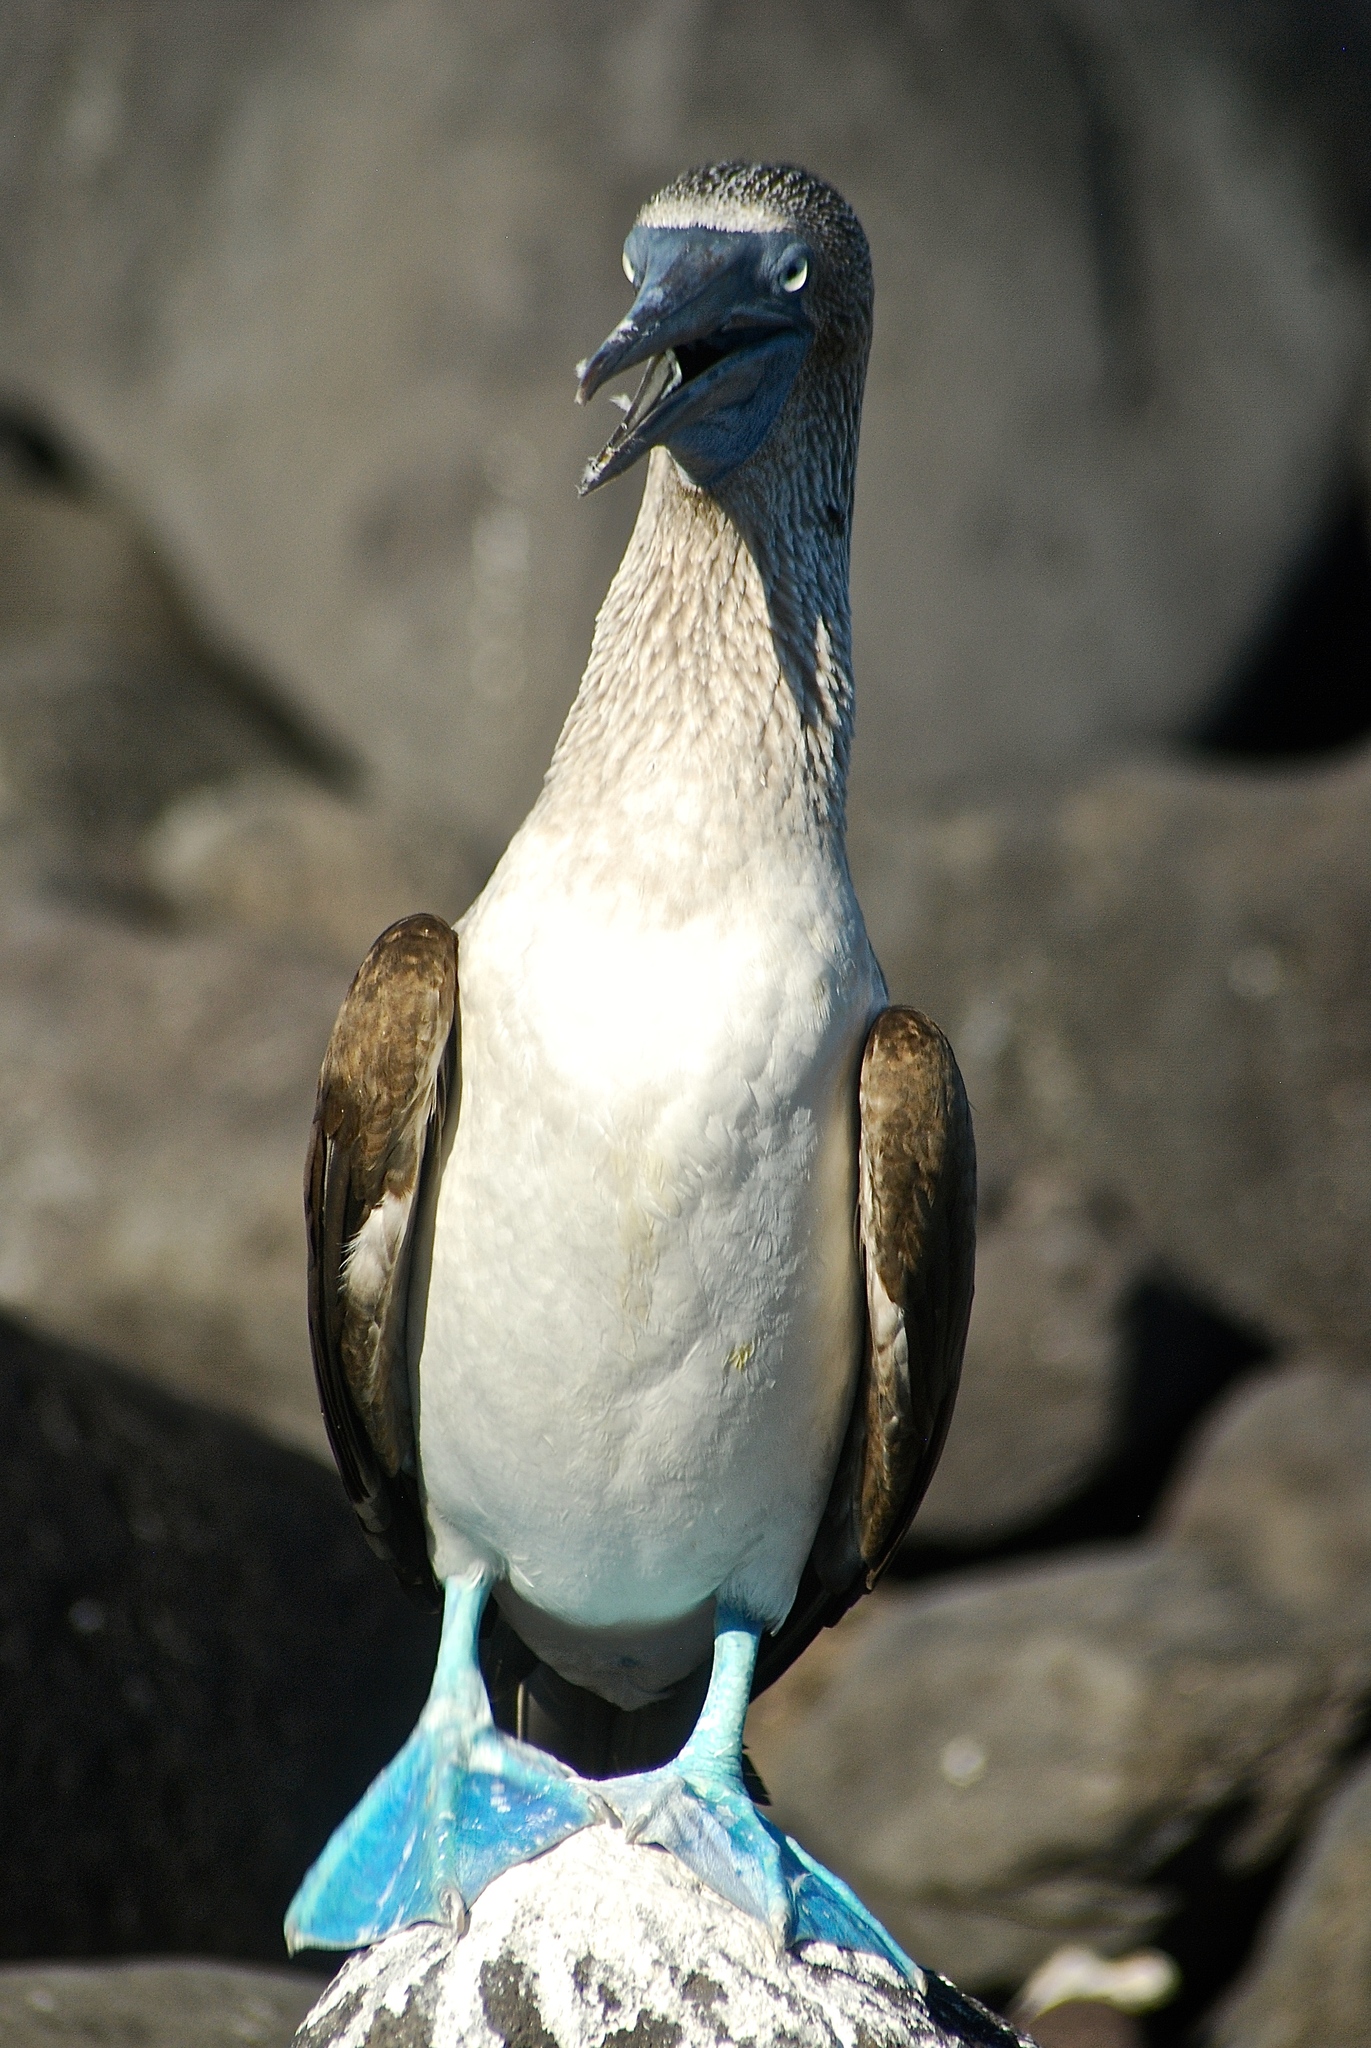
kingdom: Animalia
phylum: Chordata
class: Aves
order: Suliformes
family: Sulidae
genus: Sula
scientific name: Sula nebouxii
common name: Blue-footed booby
